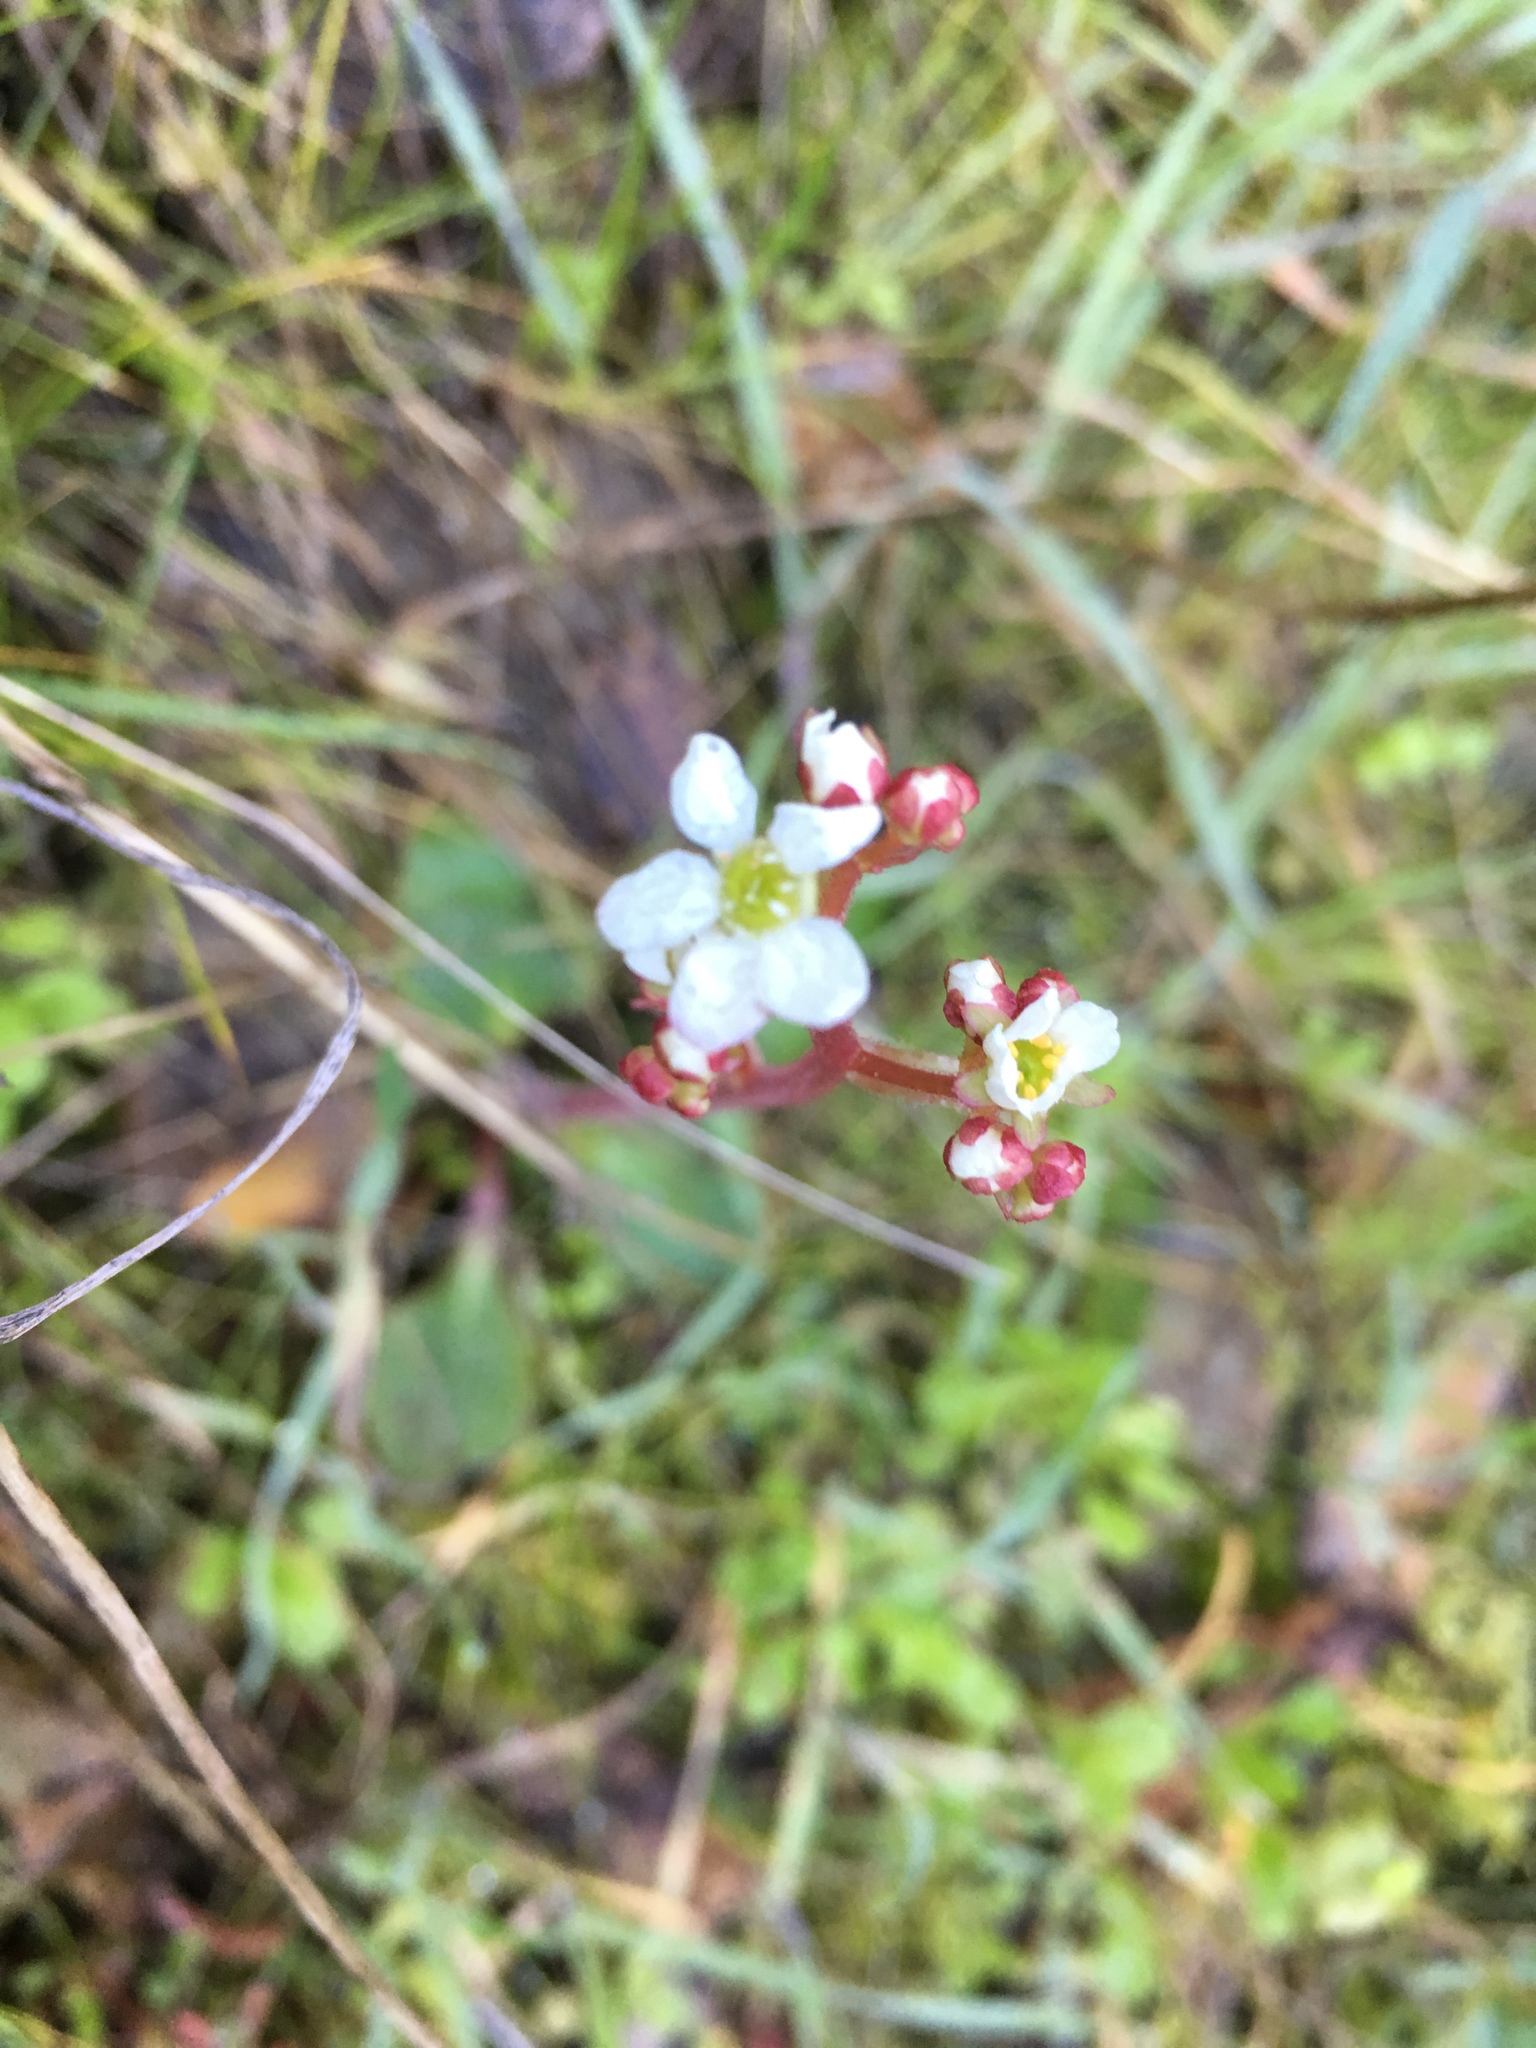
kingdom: Plantae
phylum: Tracheophyta
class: Magnoliopsida
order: Saxifragales
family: Saxifragaceae
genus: Micranthes
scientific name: Micranthes californica
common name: California saxifrage
